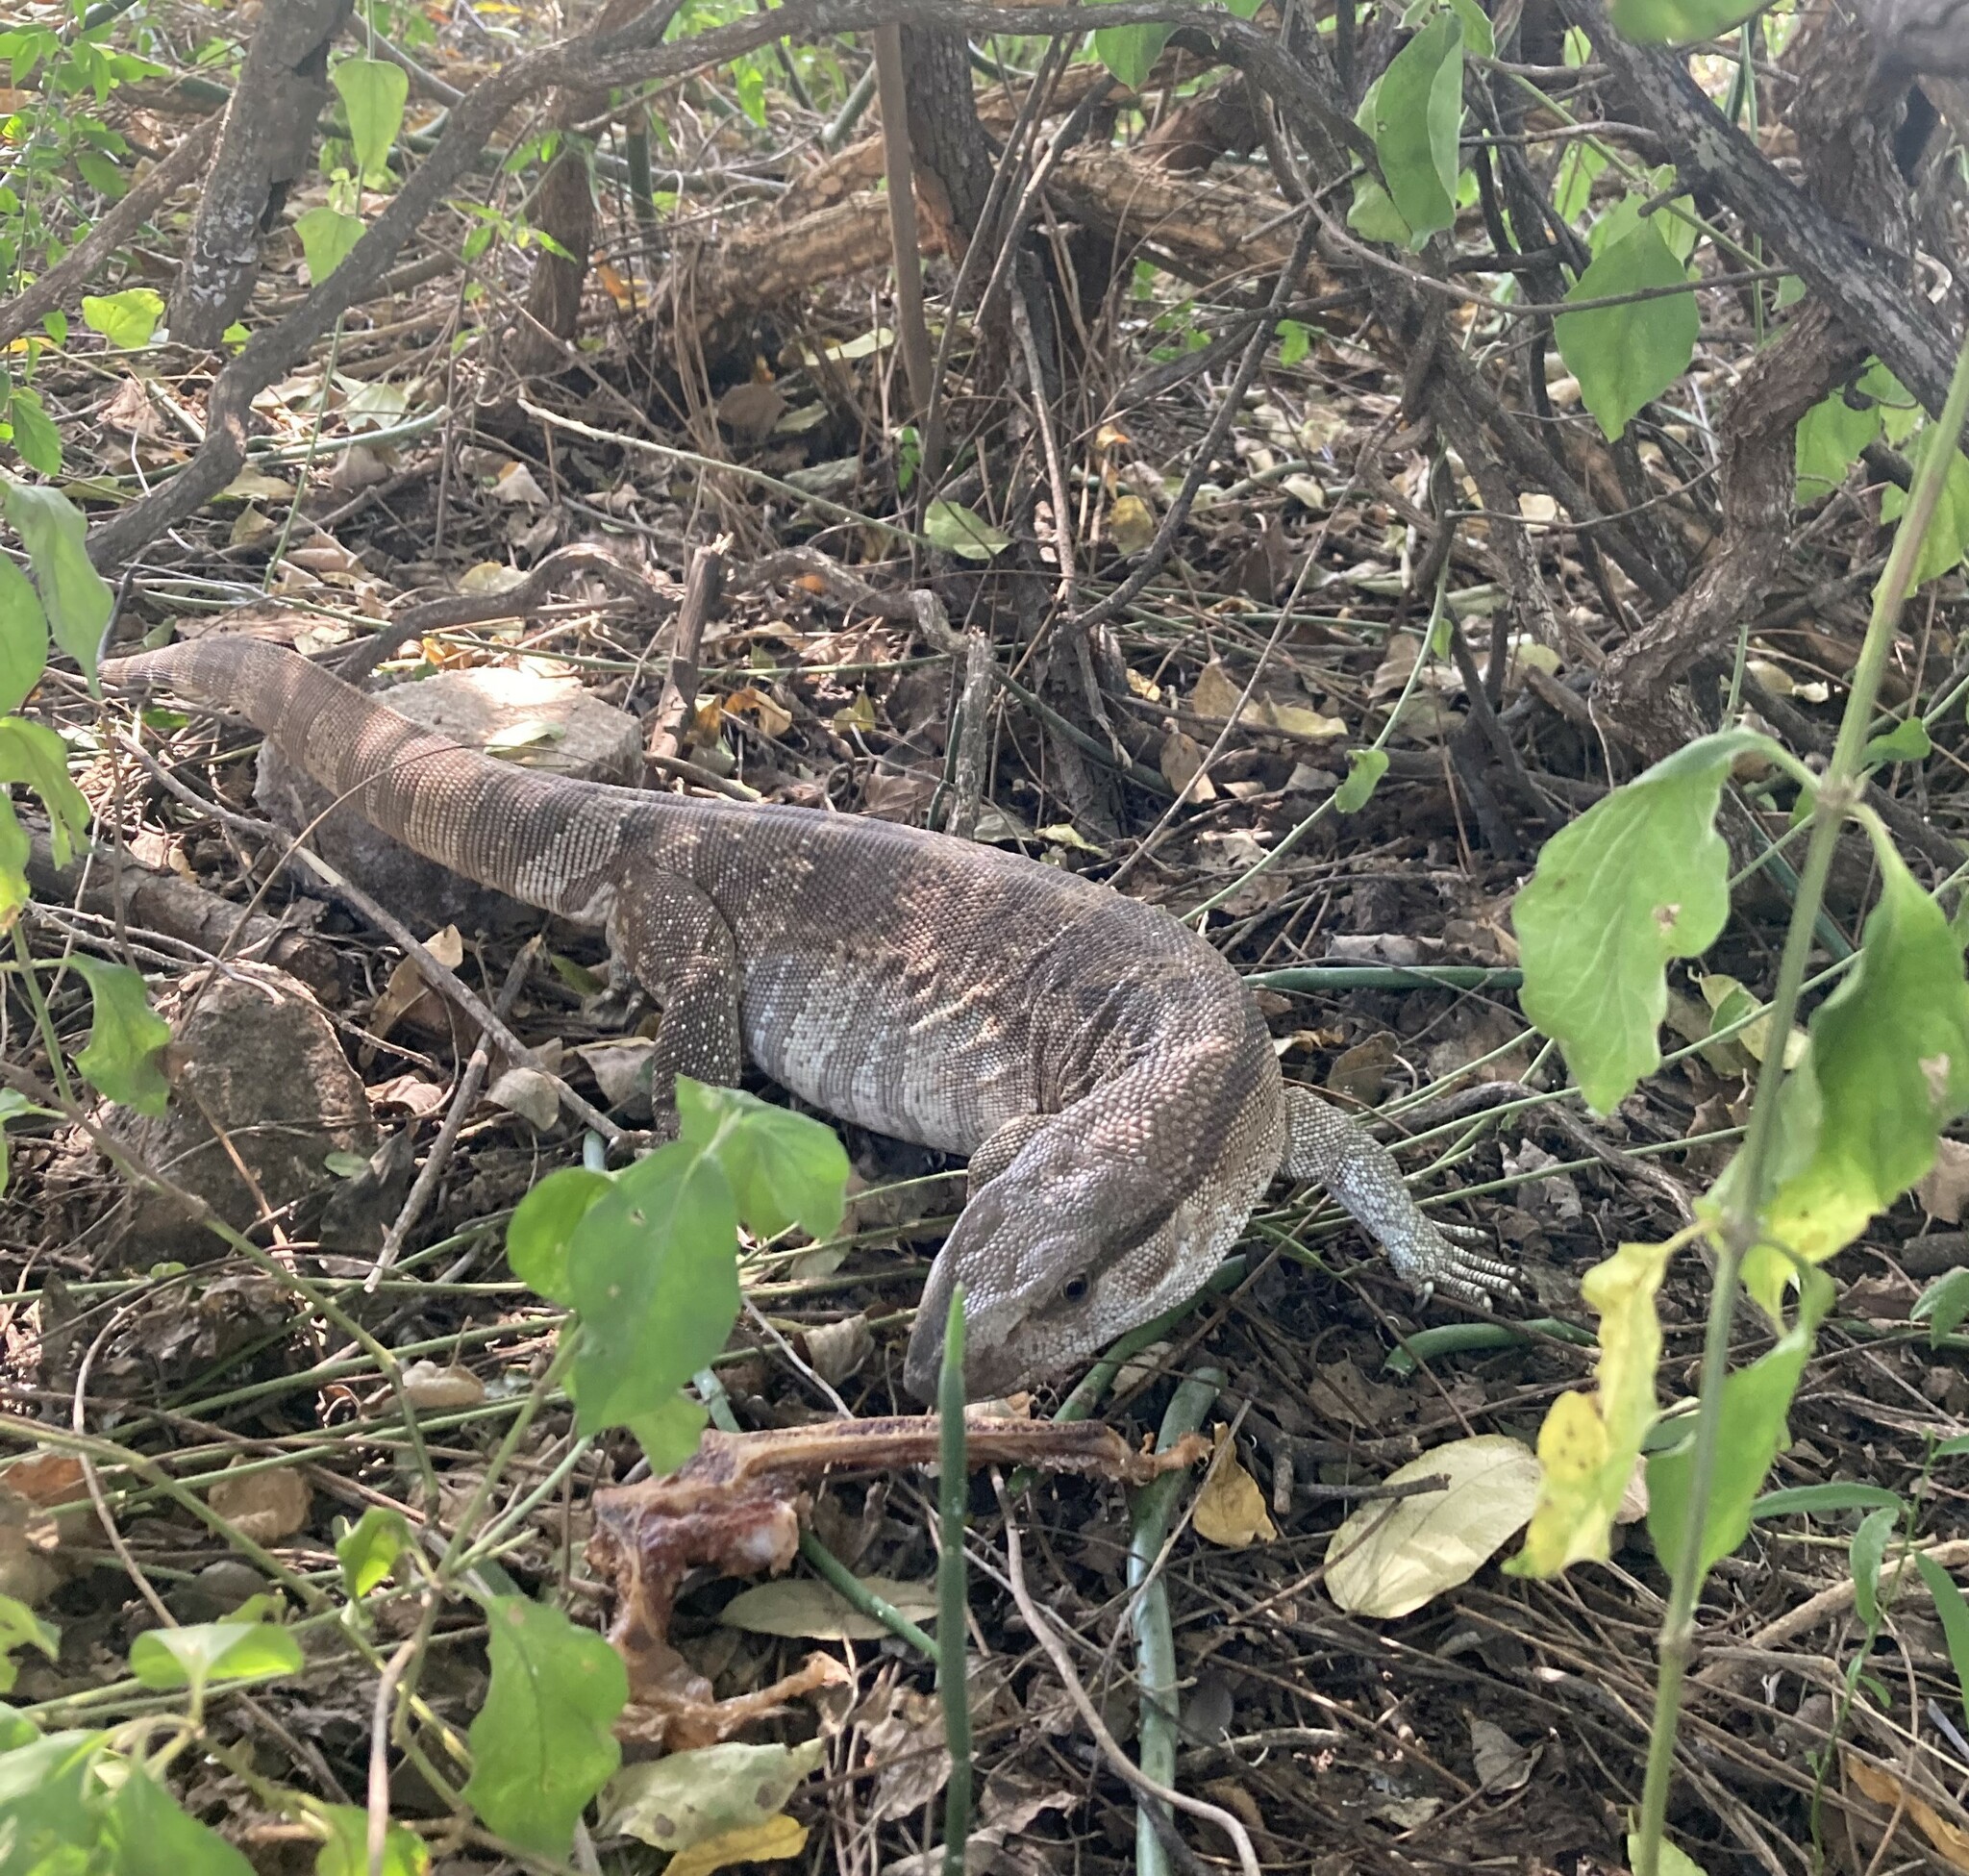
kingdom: Animalia
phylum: Chordata
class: Squamata
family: Varanidae
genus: Varanus
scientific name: Varanus albigularis
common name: White-throated monitor
